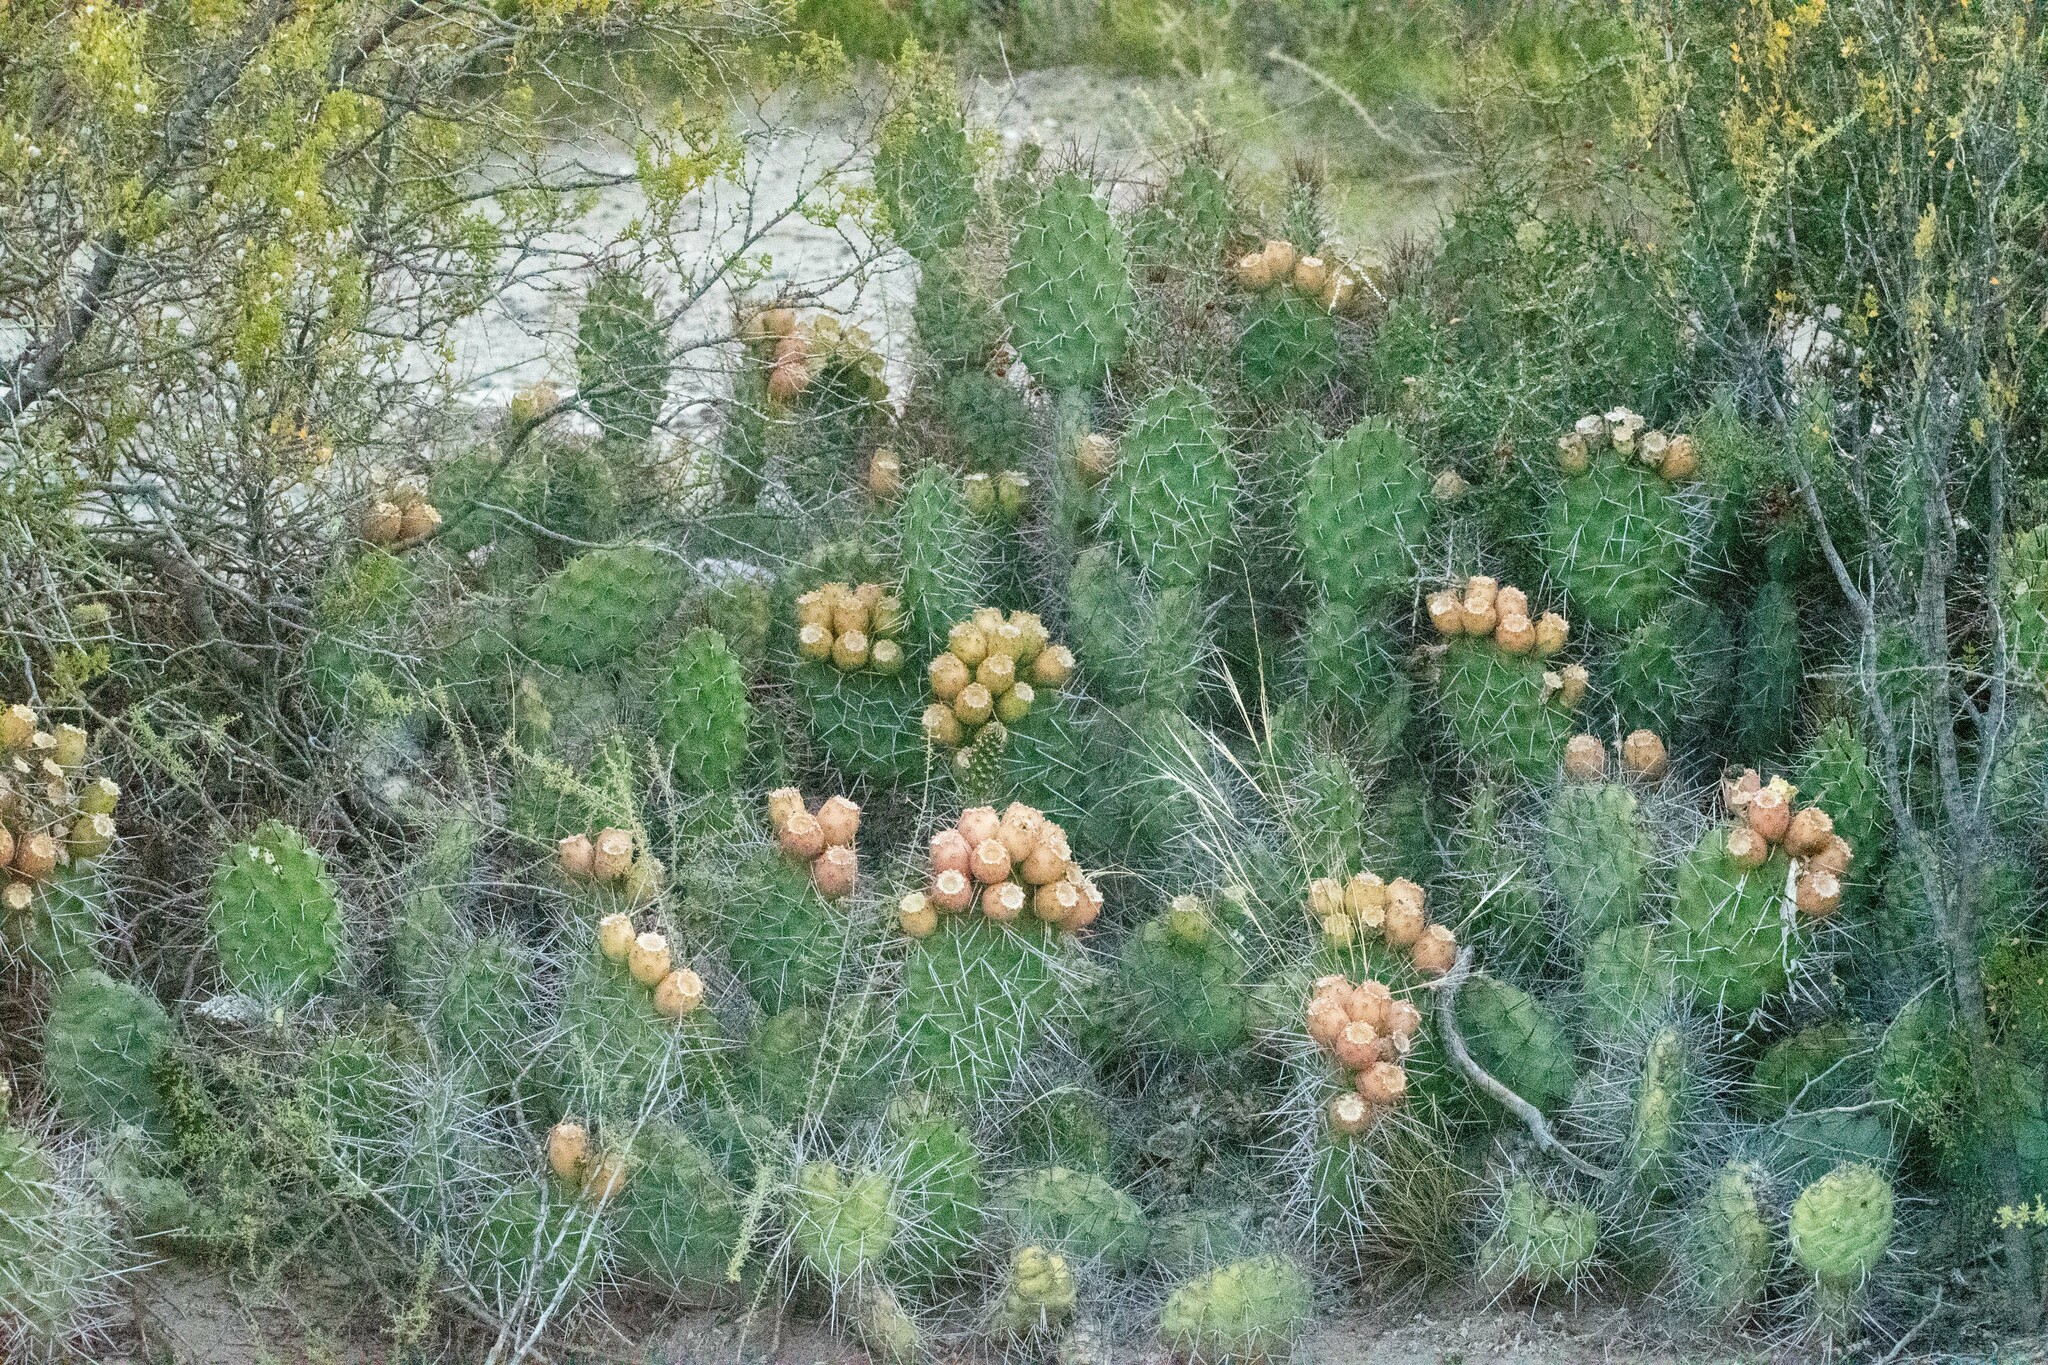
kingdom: Plantae
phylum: Tracheophyta
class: Magnoliopsida
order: Caryophyllales
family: Cactaceae
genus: Opuntia
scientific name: Opuntia sulphurea
